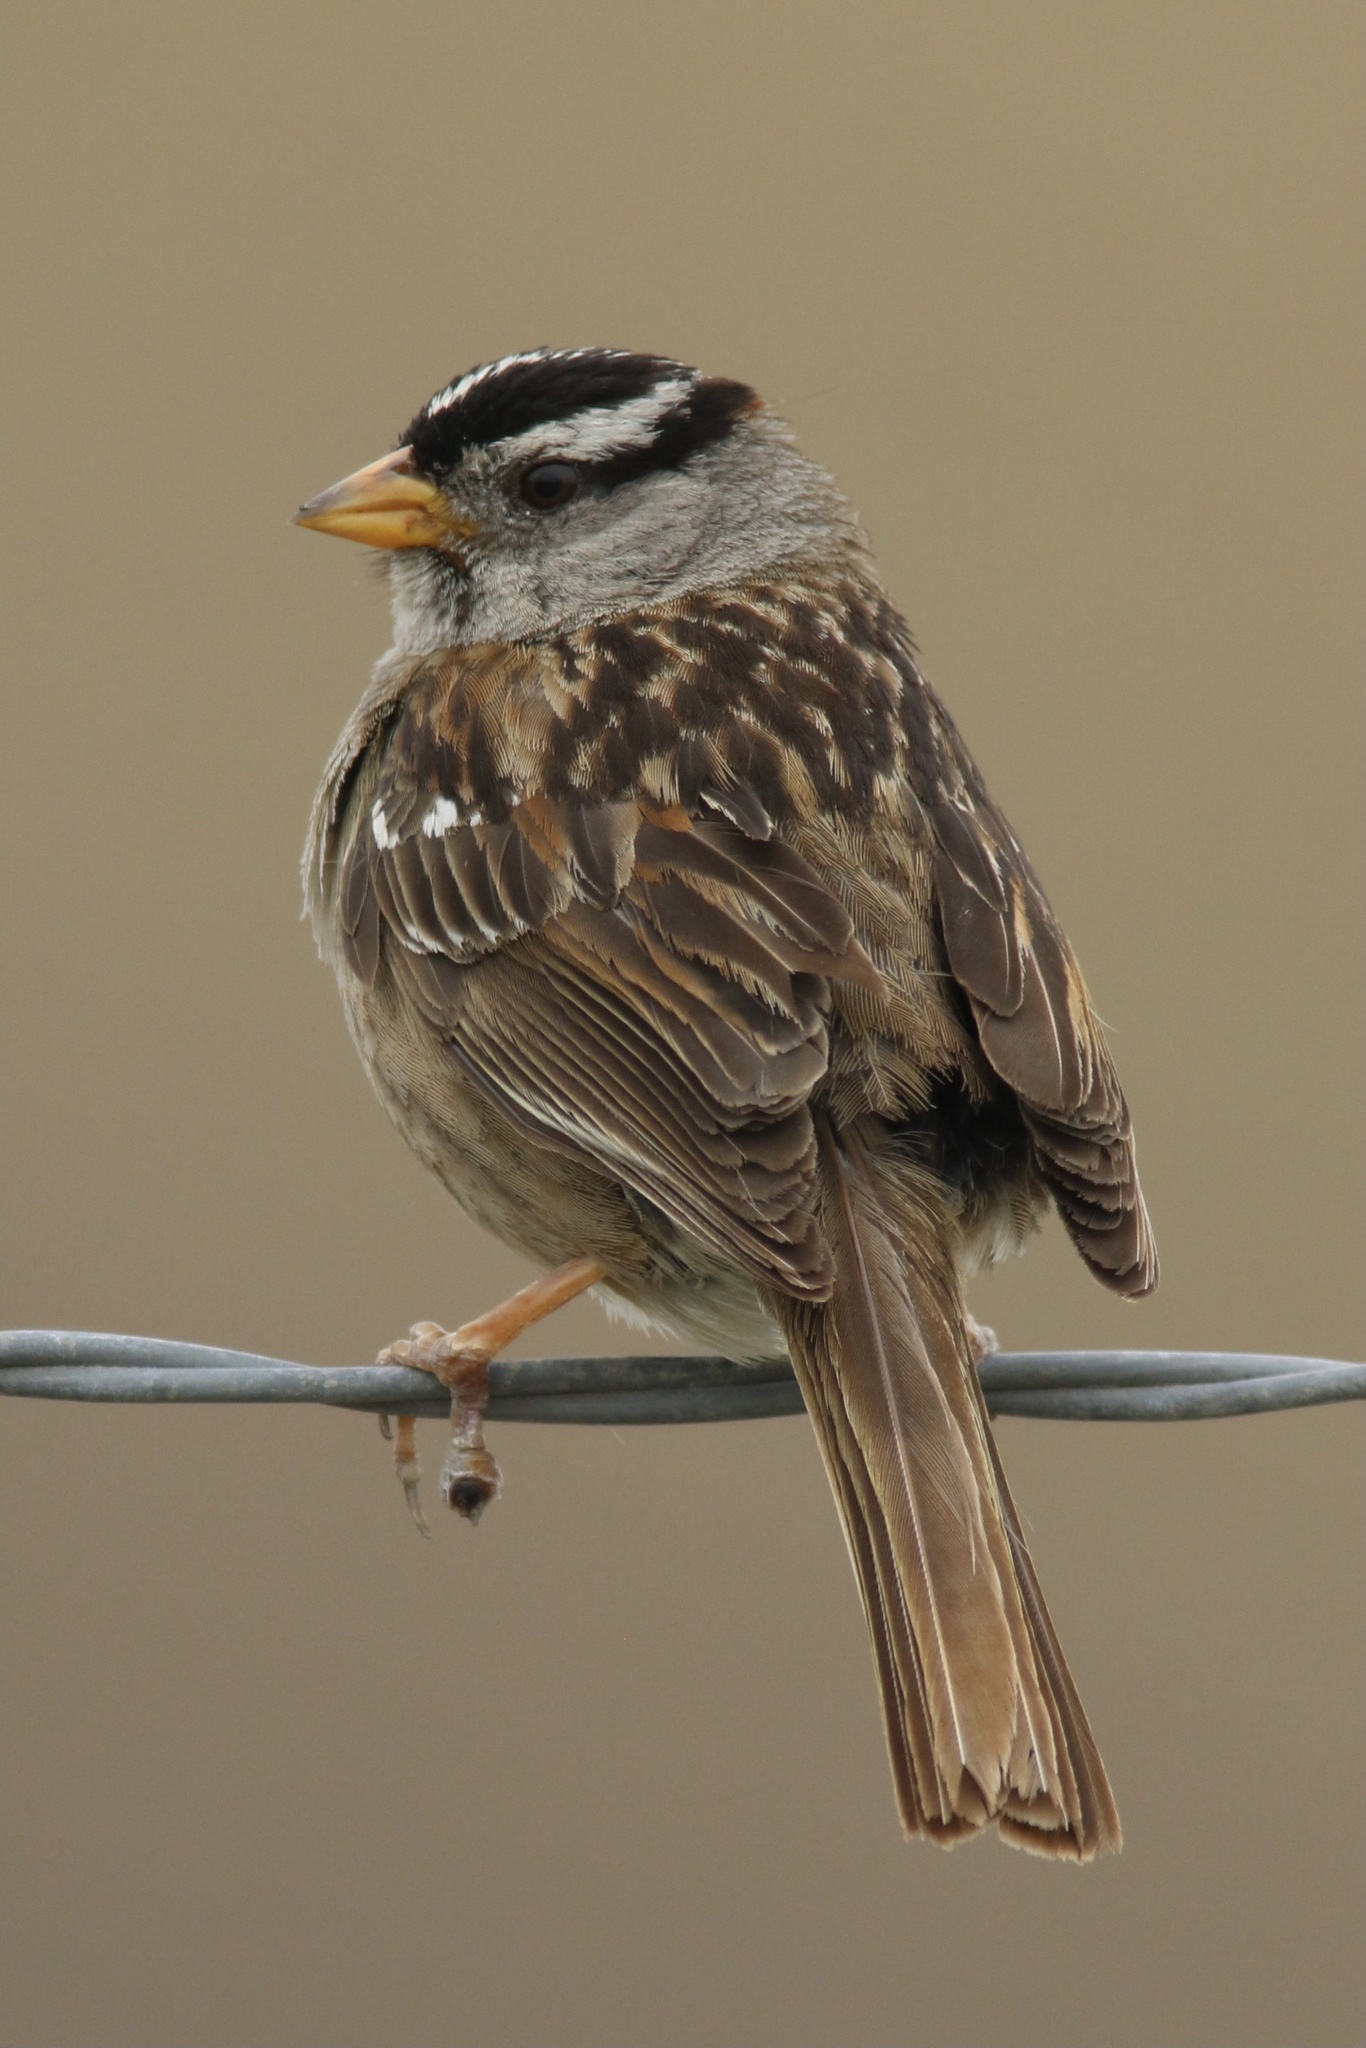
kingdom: Animalia
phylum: Chordata
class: Aves
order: Passeriformes
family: Passerellidae
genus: Zonotrichia
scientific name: Zonotrichia leucophrys
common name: White-crowned sparrow
